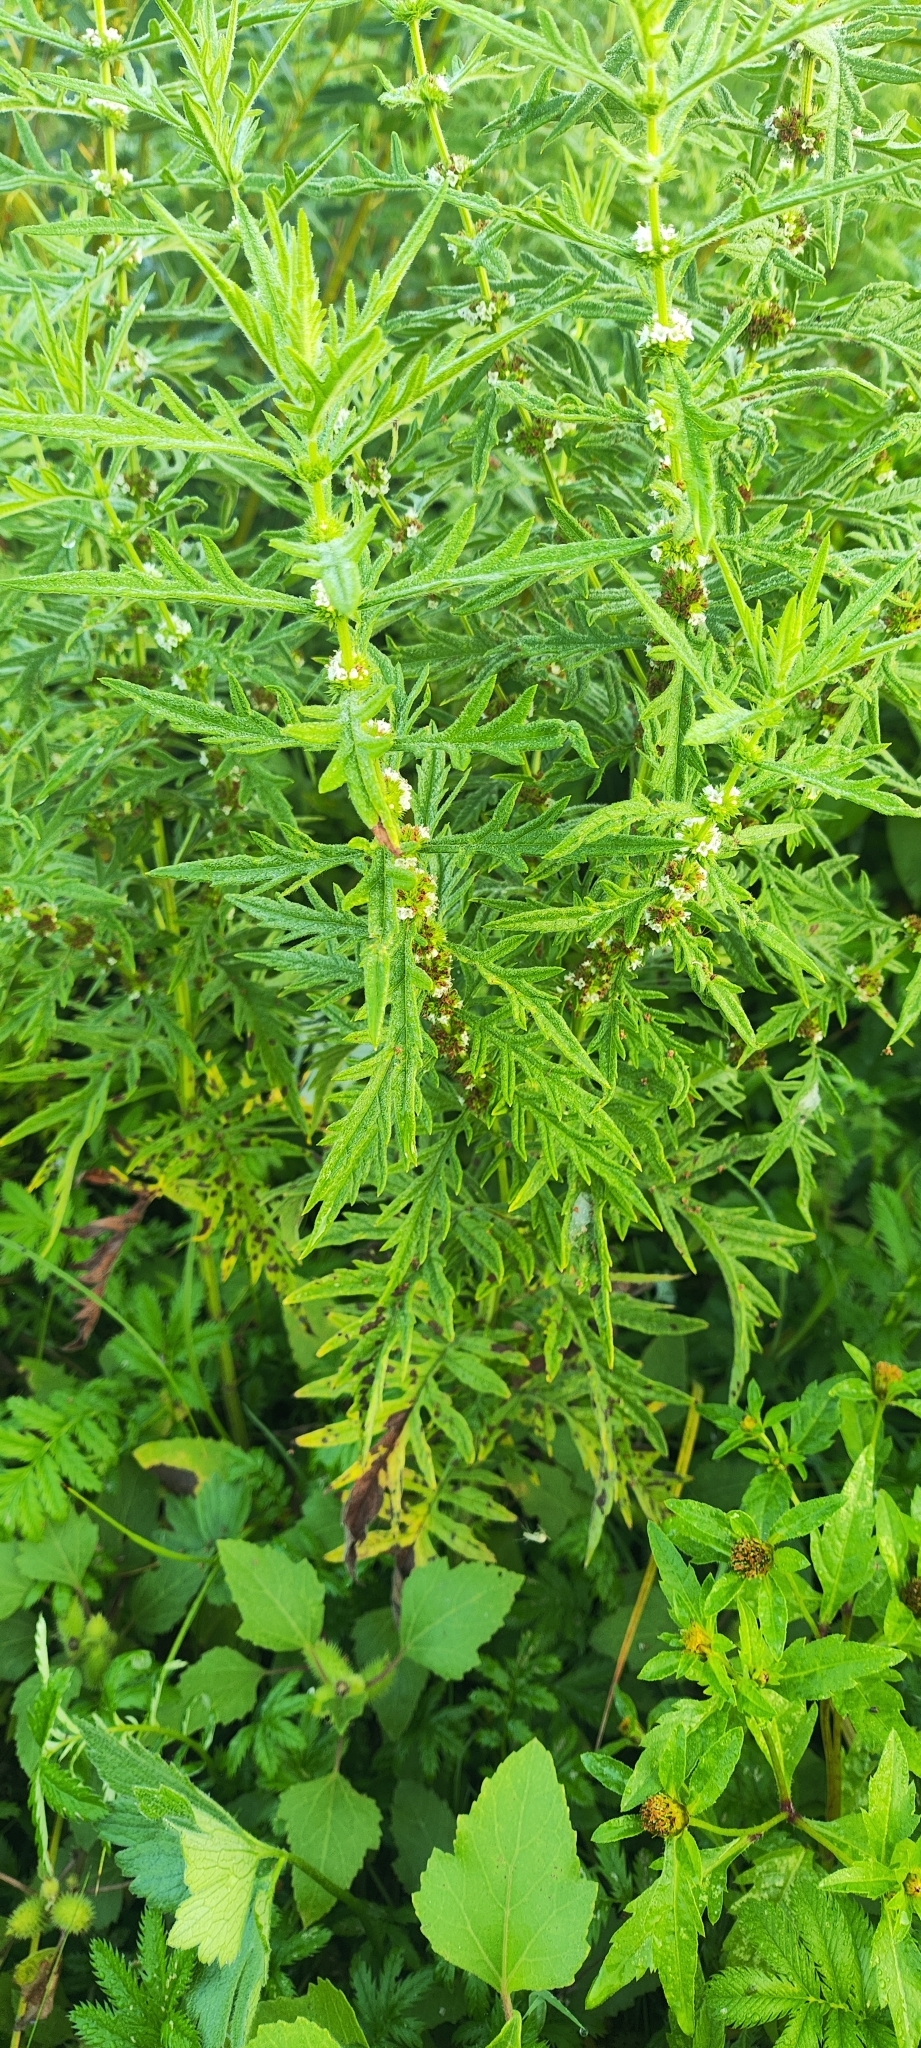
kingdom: Plantae
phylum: Tracheophyta
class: Magnoliopsida
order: Lamiales
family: Lamiaceae
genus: Lycopus
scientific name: Lycopus exaltatus
